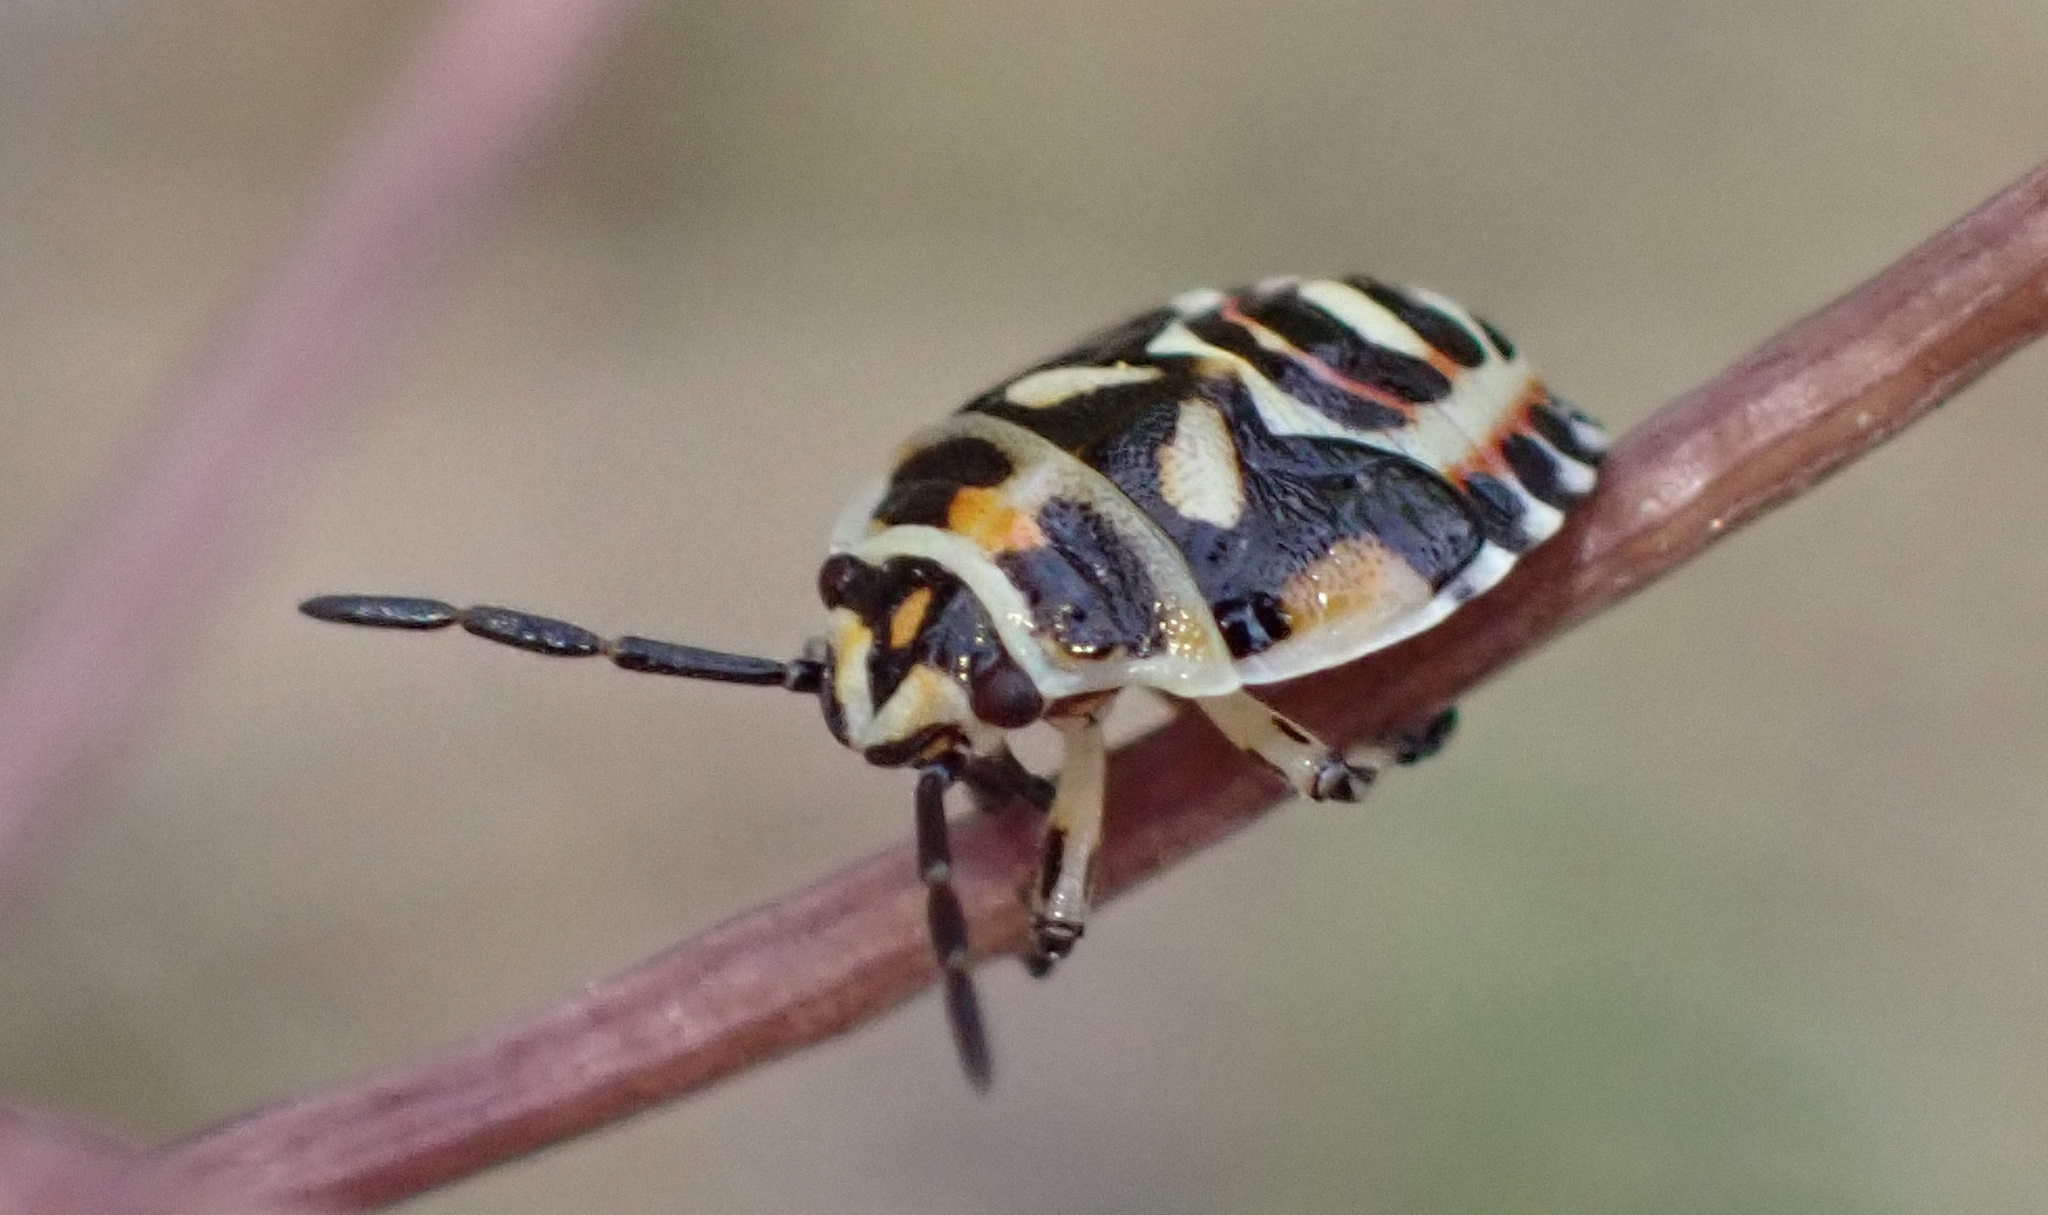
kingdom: Animalia
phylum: Arthropoda
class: Insecta
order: Hemiptera
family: Pentatomidae
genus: Eurydema
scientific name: Eurydema ornata
